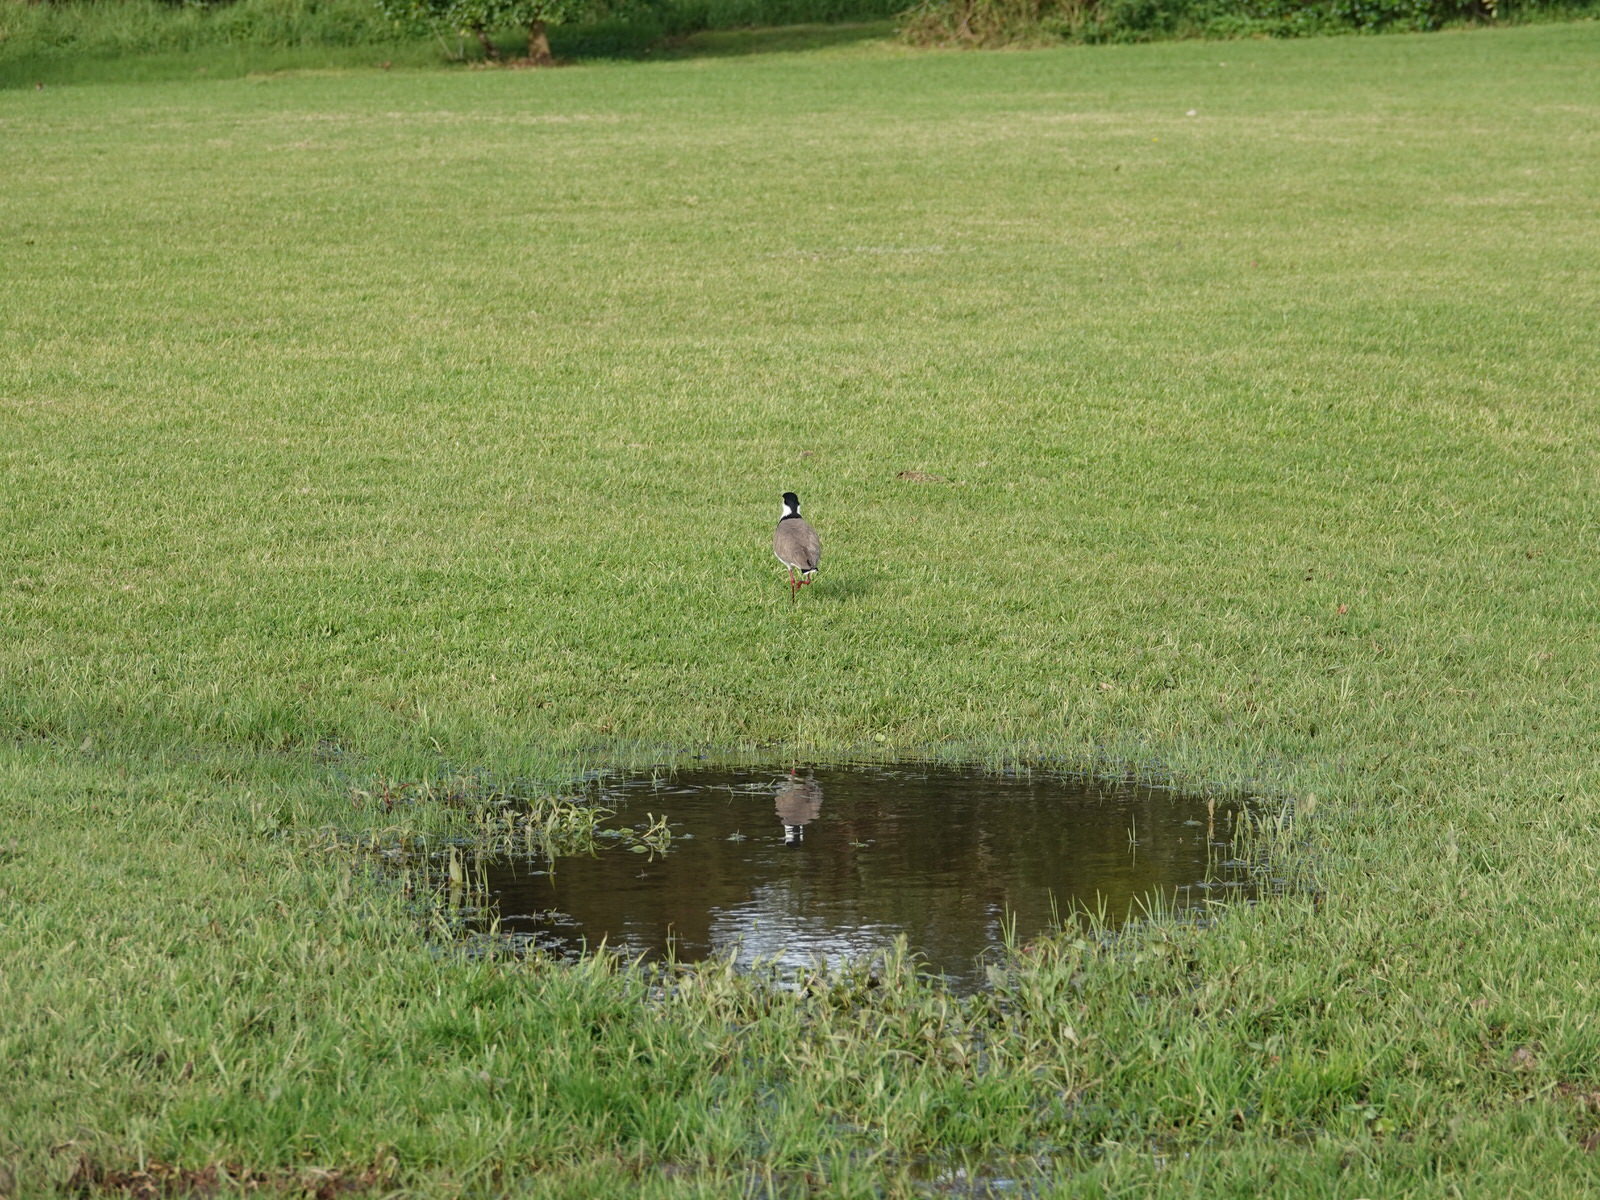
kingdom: Animalia
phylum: Chordata
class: Aves
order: Charadriiformes
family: Charadriidae
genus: Vanellus
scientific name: Vanellus miles
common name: Masked lapwing
